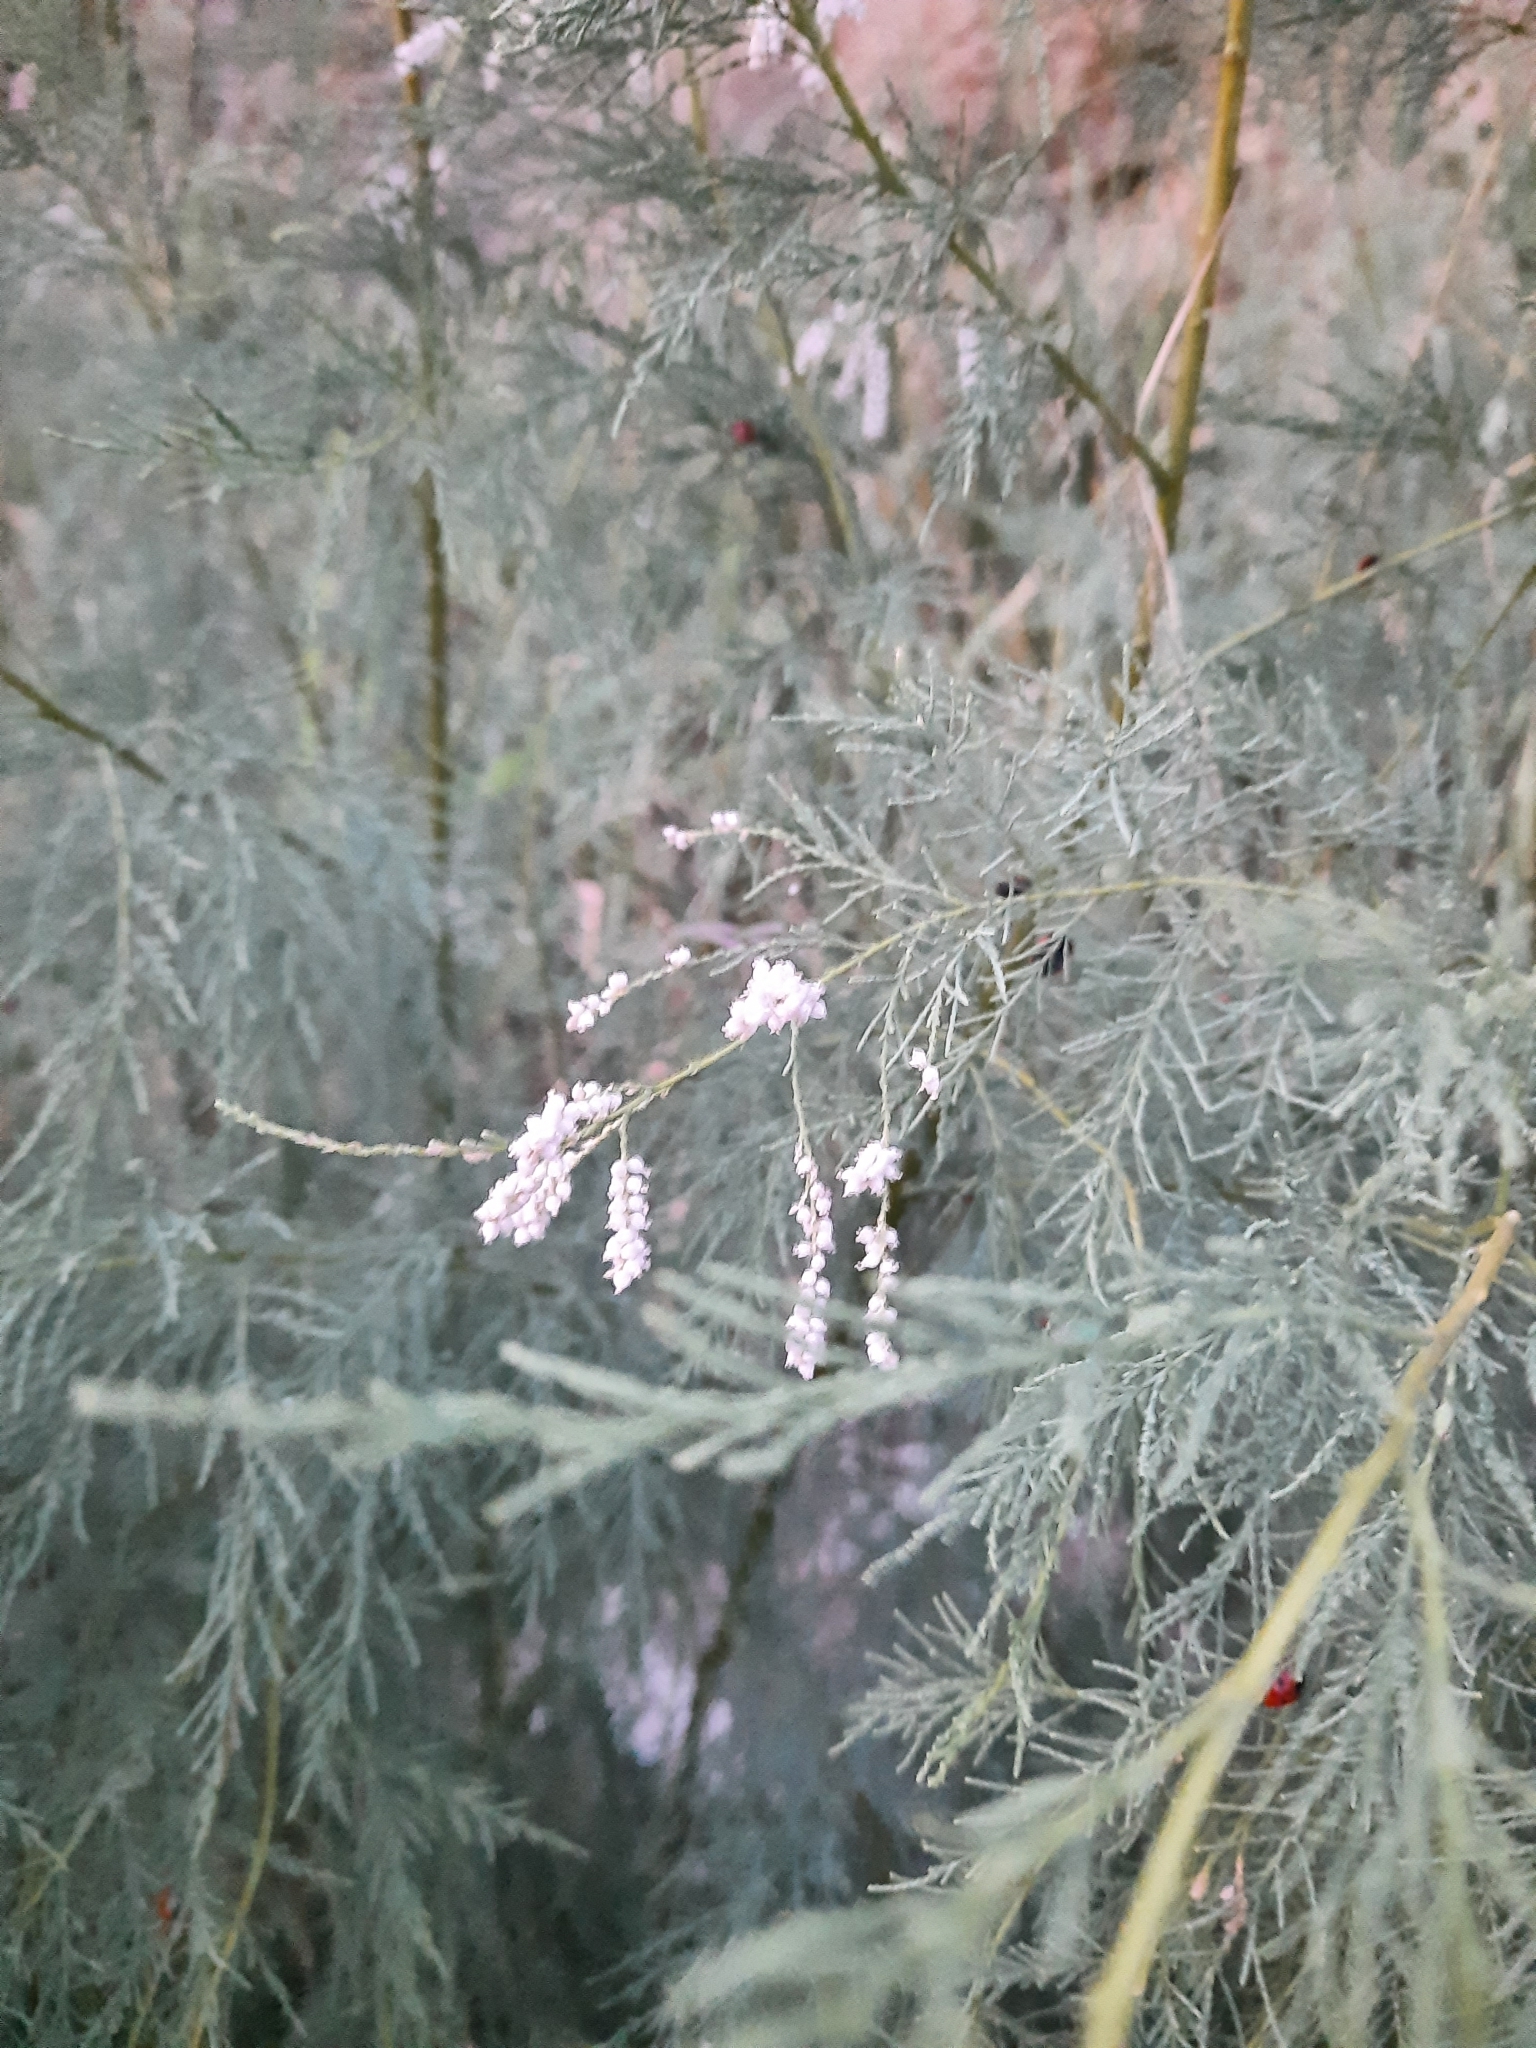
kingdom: Plantae
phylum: Tracheophyta
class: Magnoliopsida
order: Caryophyllales
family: Tamaricaceae
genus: Tamarix
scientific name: Tamarix ramosissima
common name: Pink tamarisk
